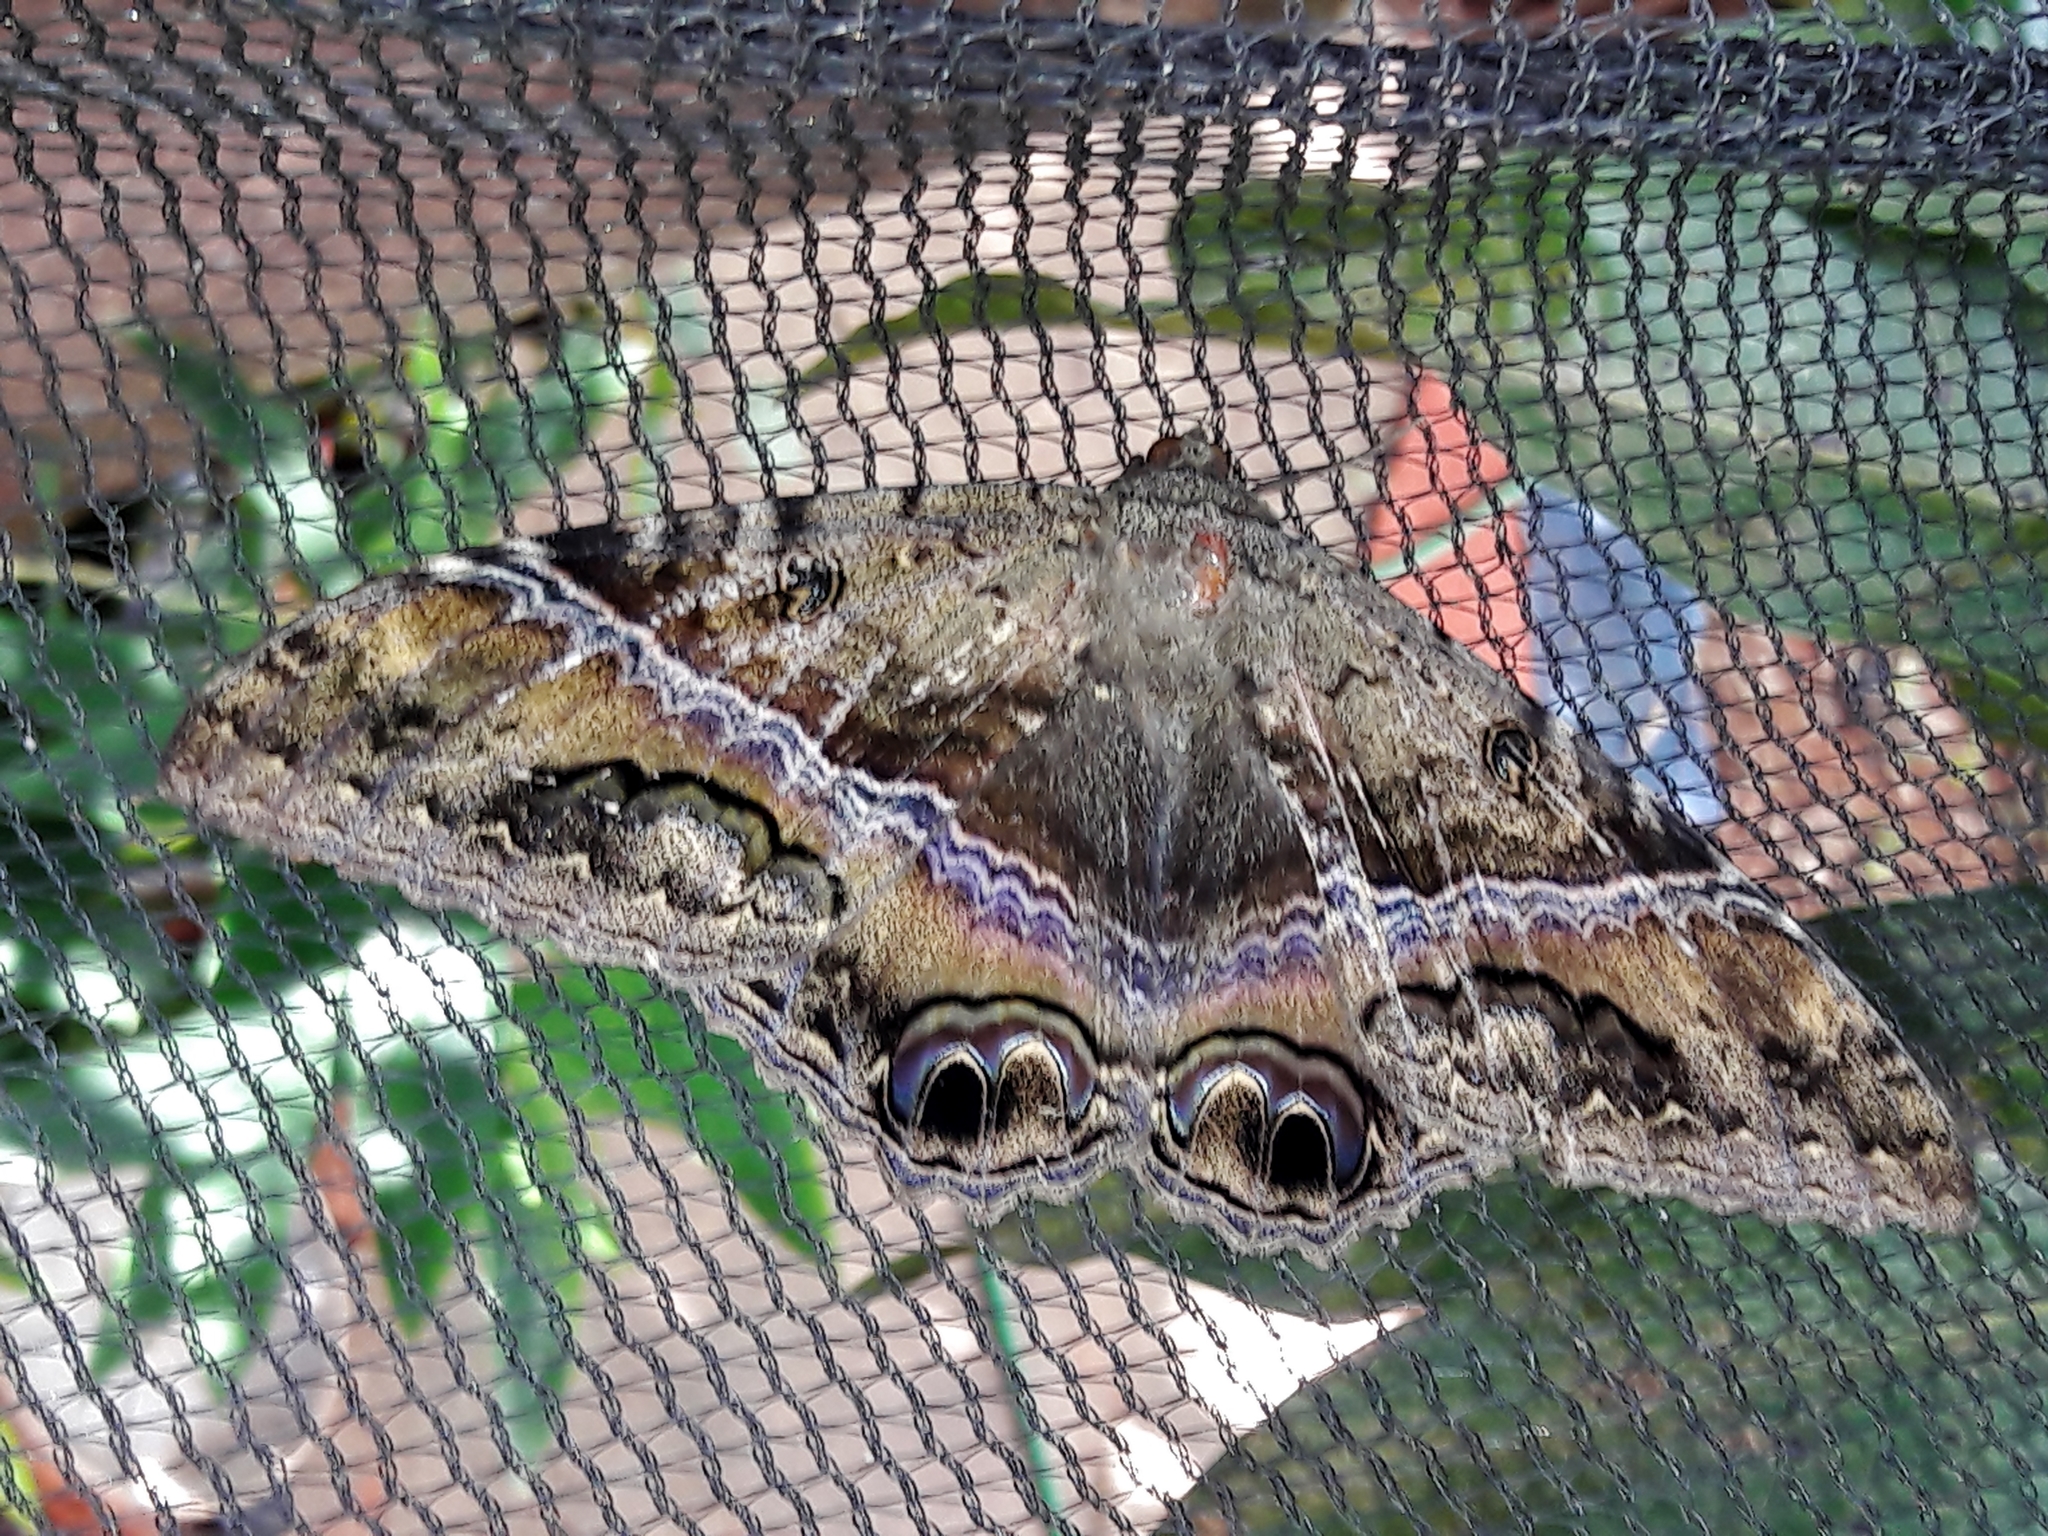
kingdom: Animalia
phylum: Arthropoda
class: Insecta
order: Lepidoptera
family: Erebidae
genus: Ascalapha
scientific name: Ascalapha odorata
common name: Black witch
